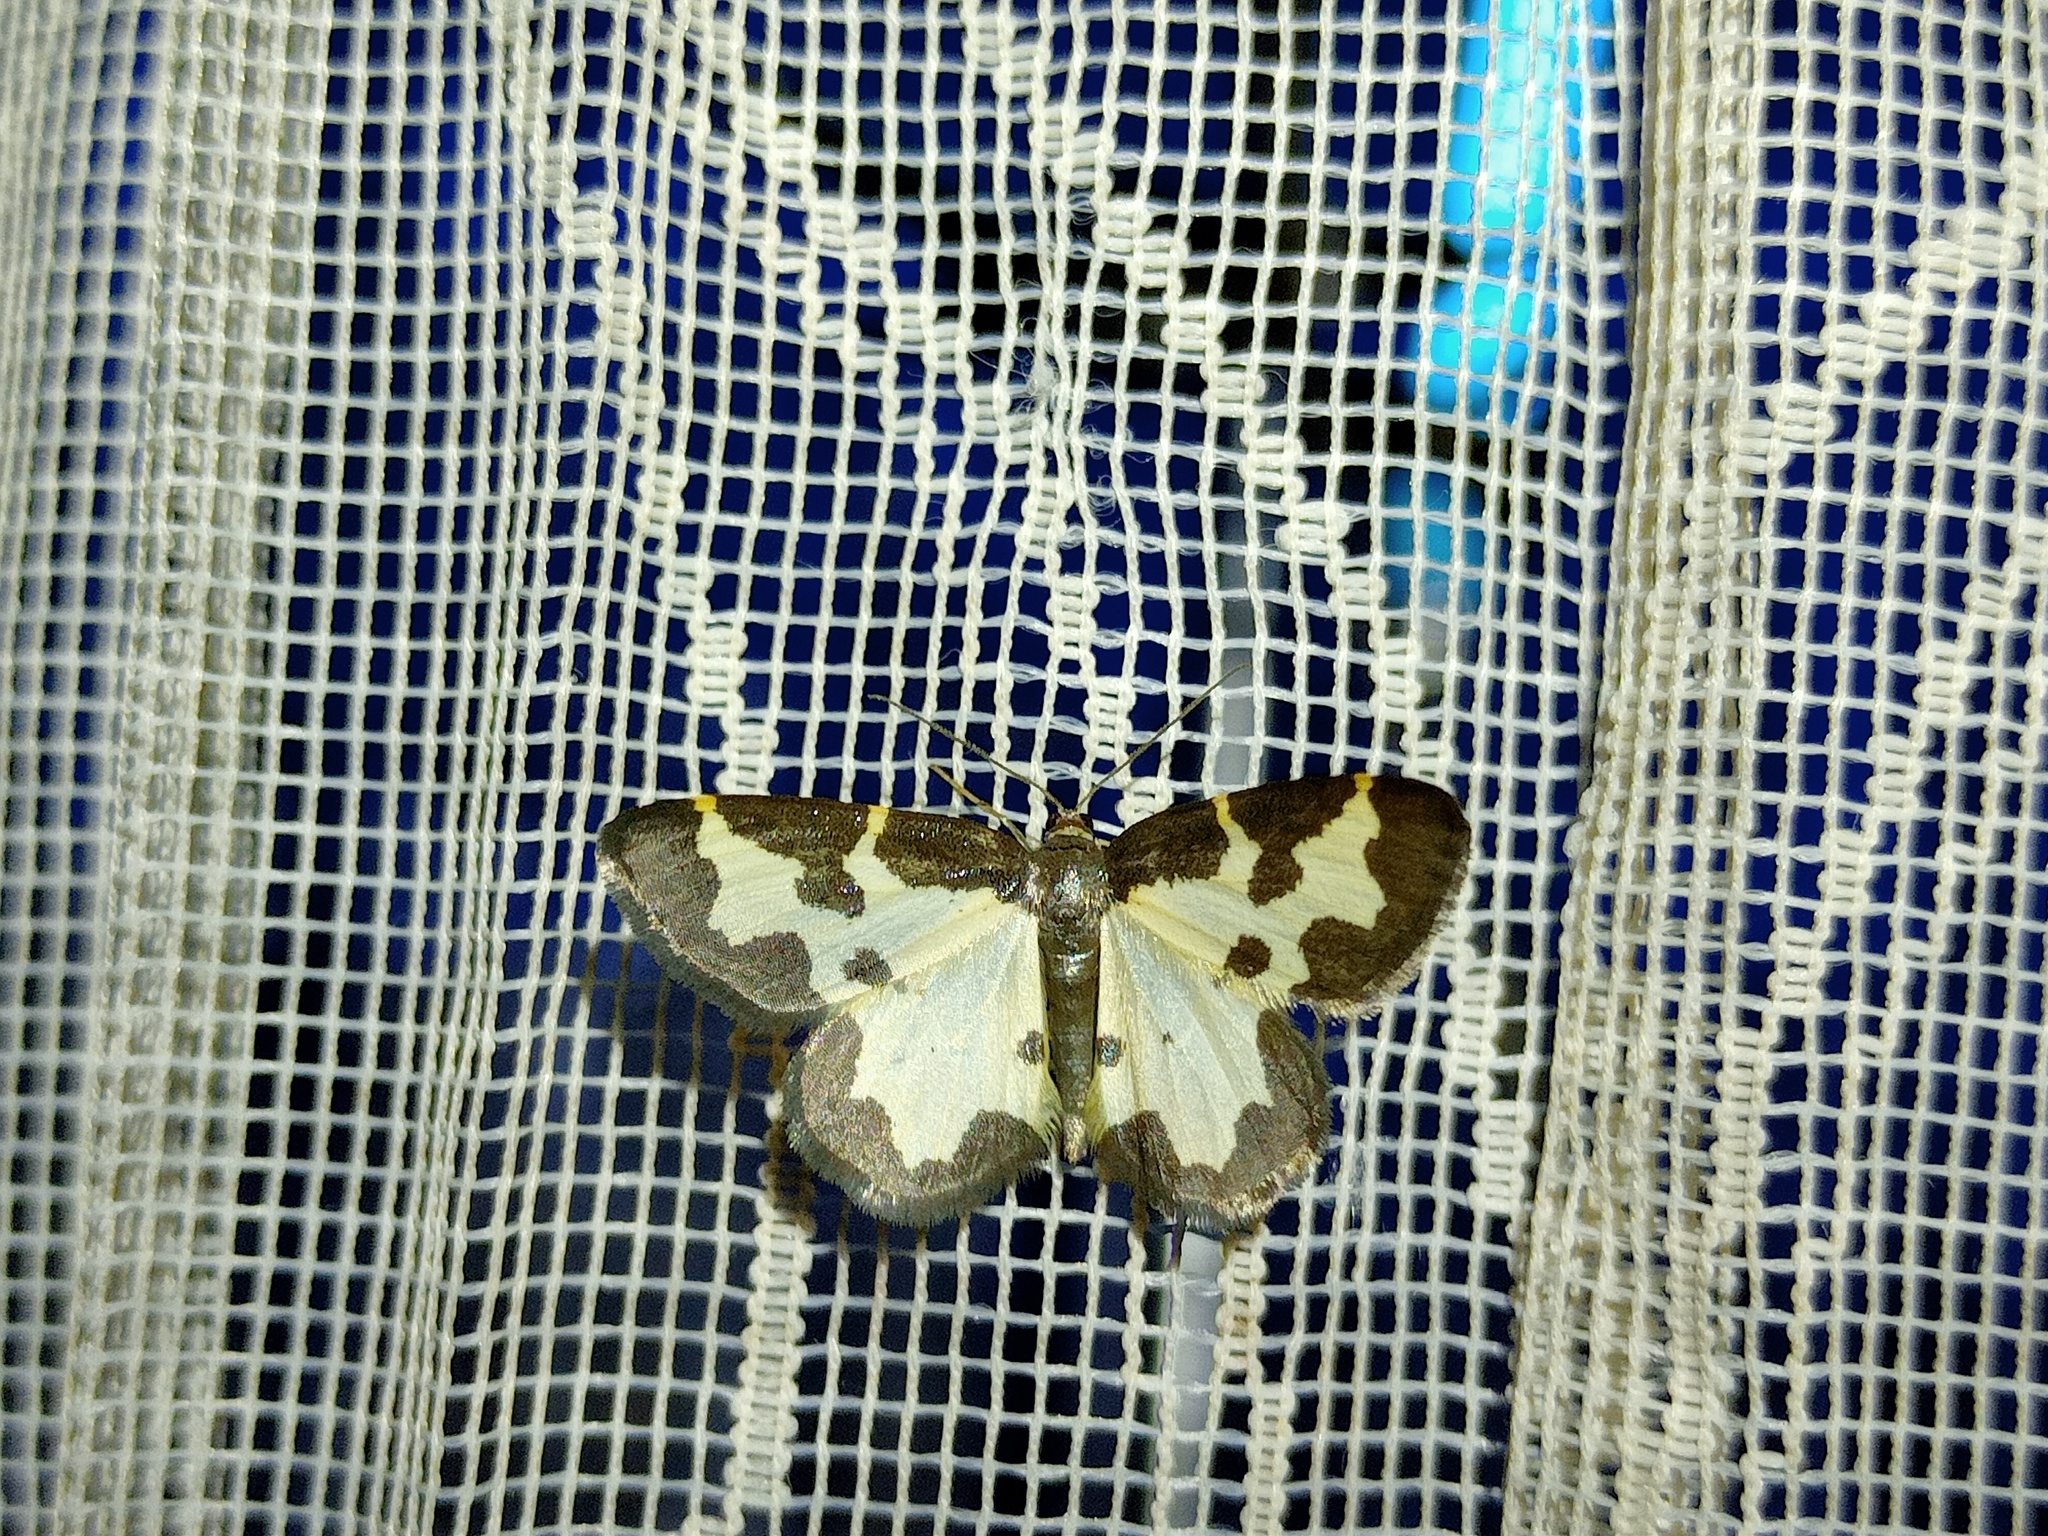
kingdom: Animalia
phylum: Arthropoda
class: Insecta
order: Lepidoptera
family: Geometridae
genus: Lomaspilis
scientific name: Lomaspilis marginata
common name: Clouded border
